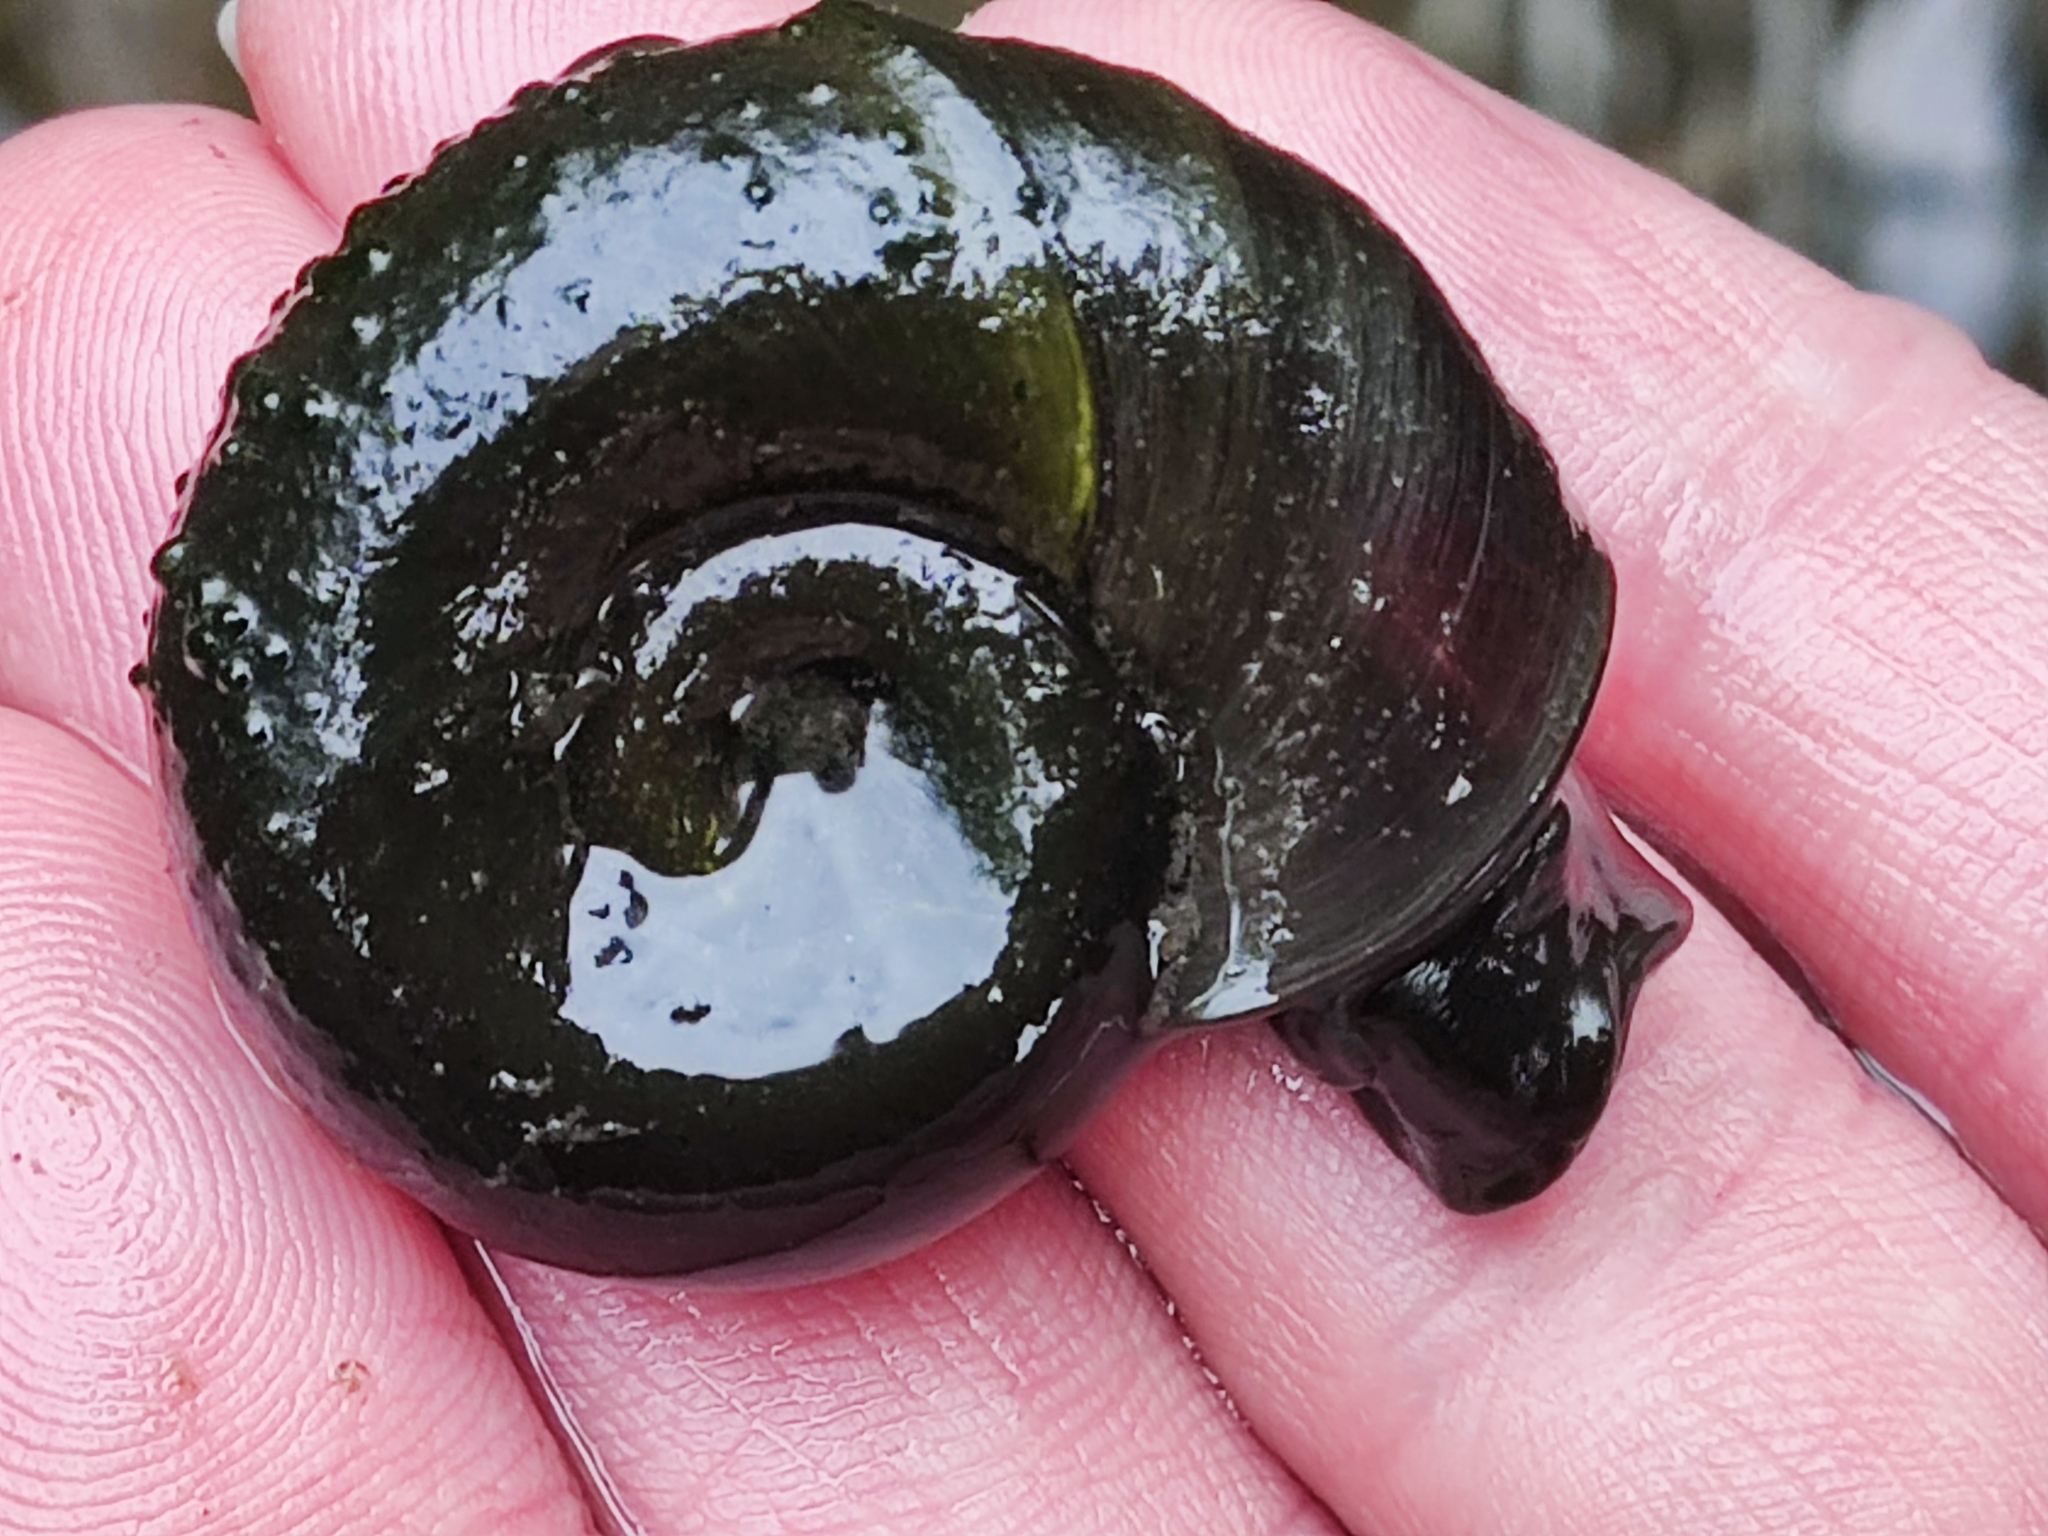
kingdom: Animalia
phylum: Mollusca
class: Gastropoda
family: Planorbidae
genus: Planorbarius
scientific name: Planorbarius corneus
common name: Great ramshorn
